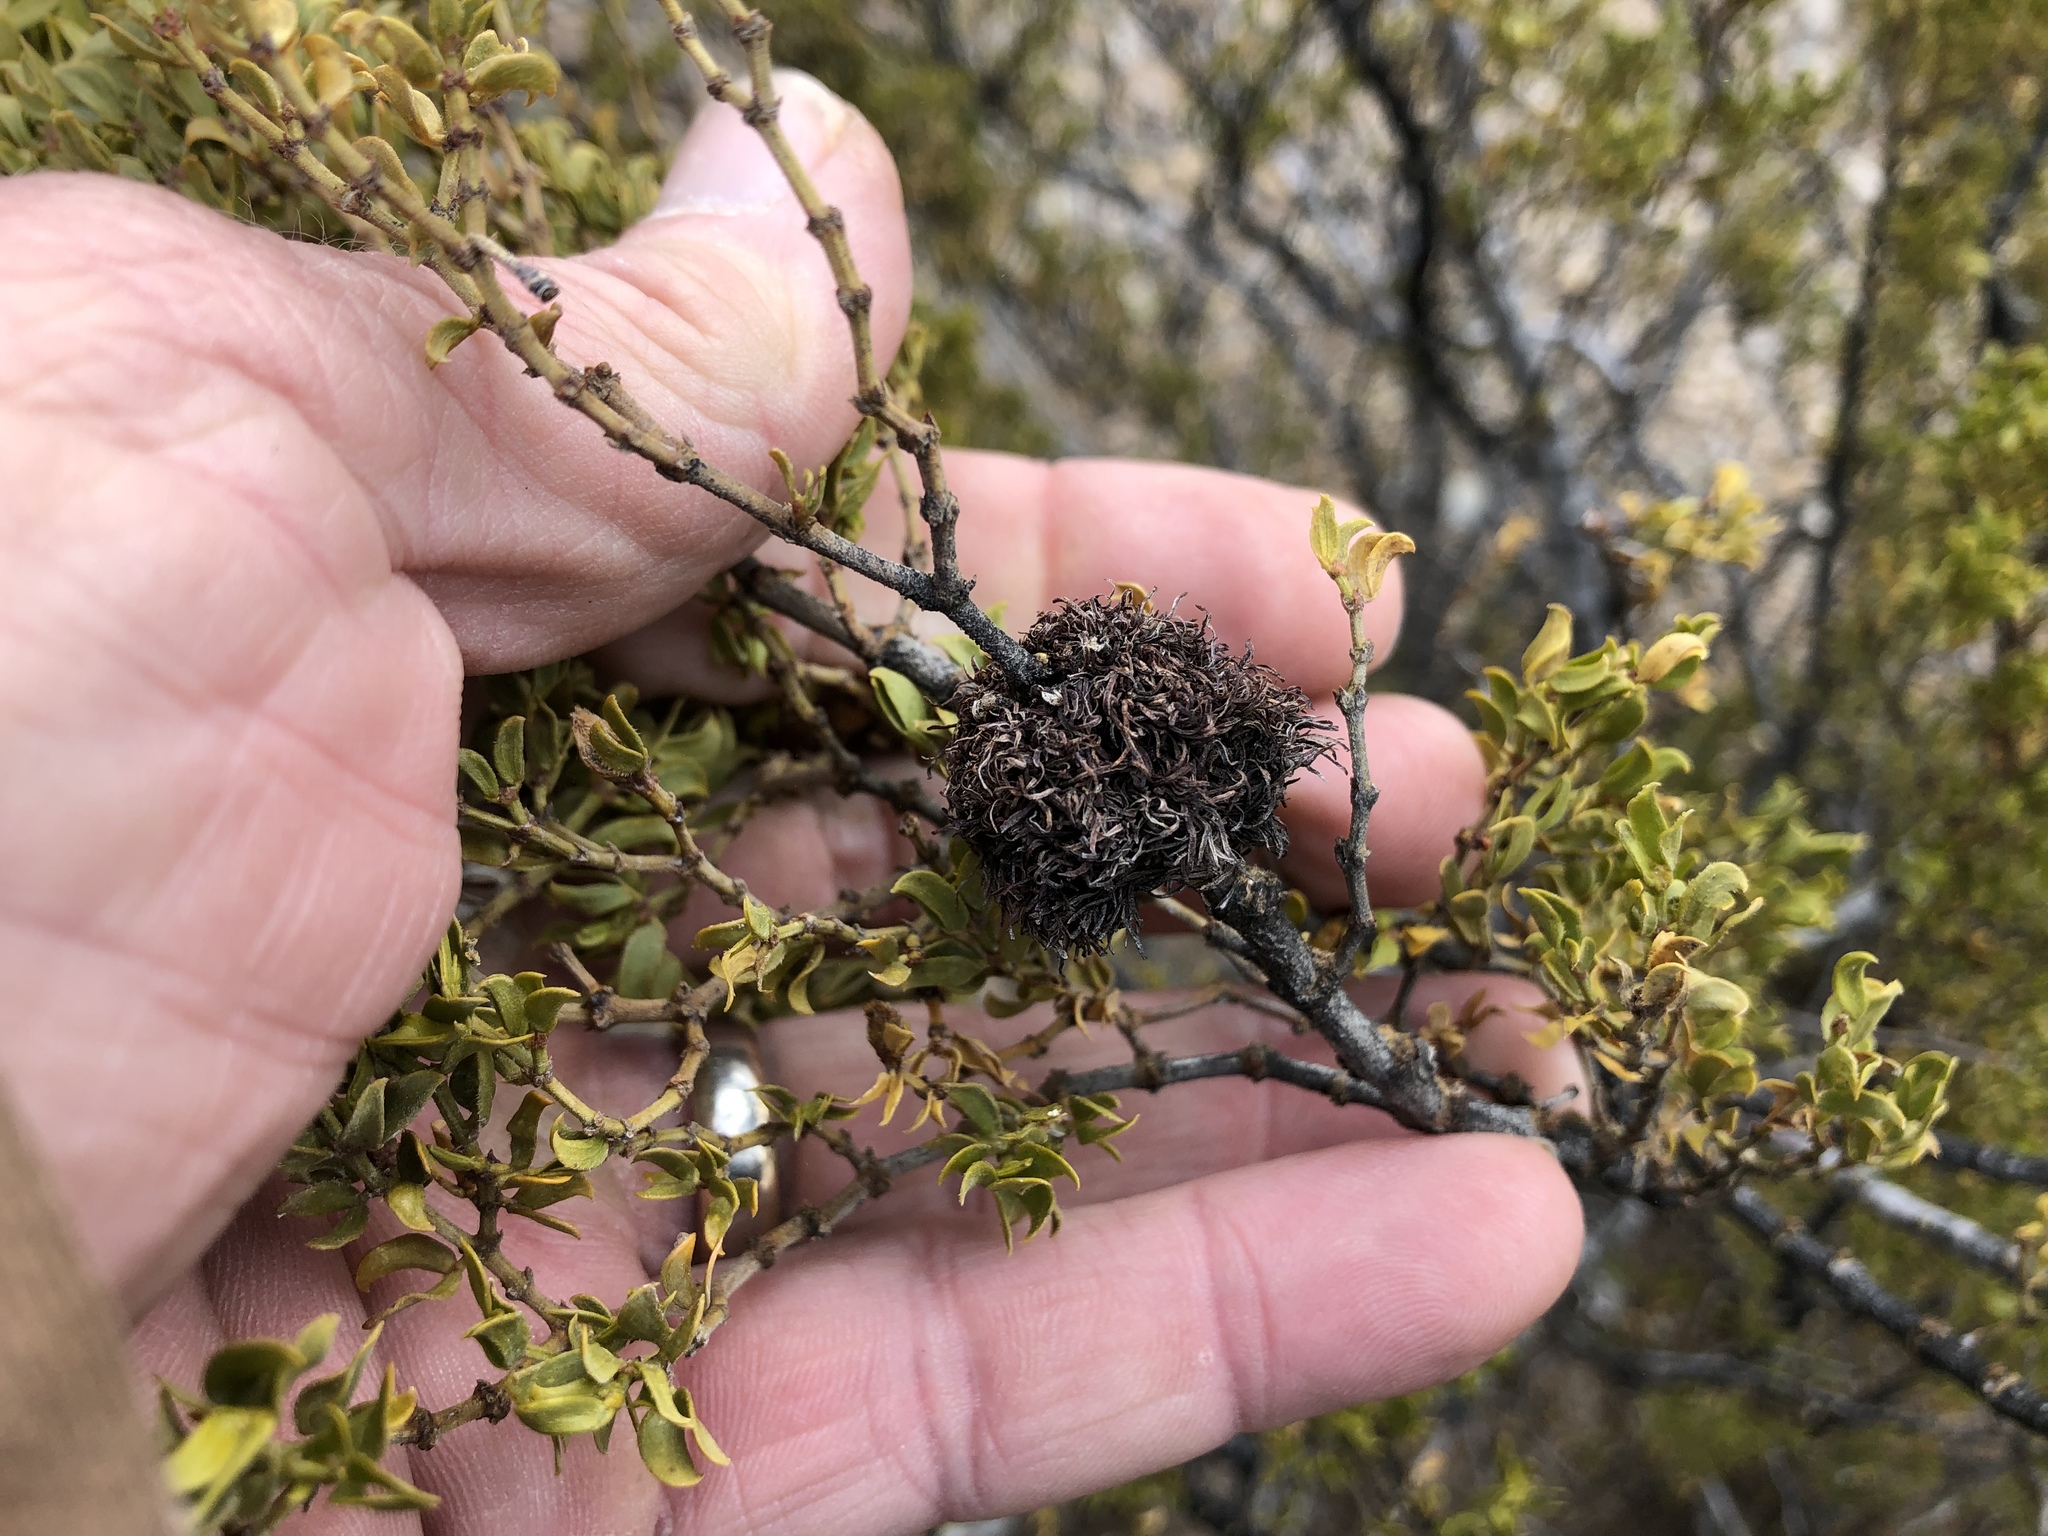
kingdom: Animalia
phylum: Arthropoda
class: Insecta
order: Diptera
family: Cecidomyiidae
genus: Asphondylia
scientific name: Asphondylia auripila
